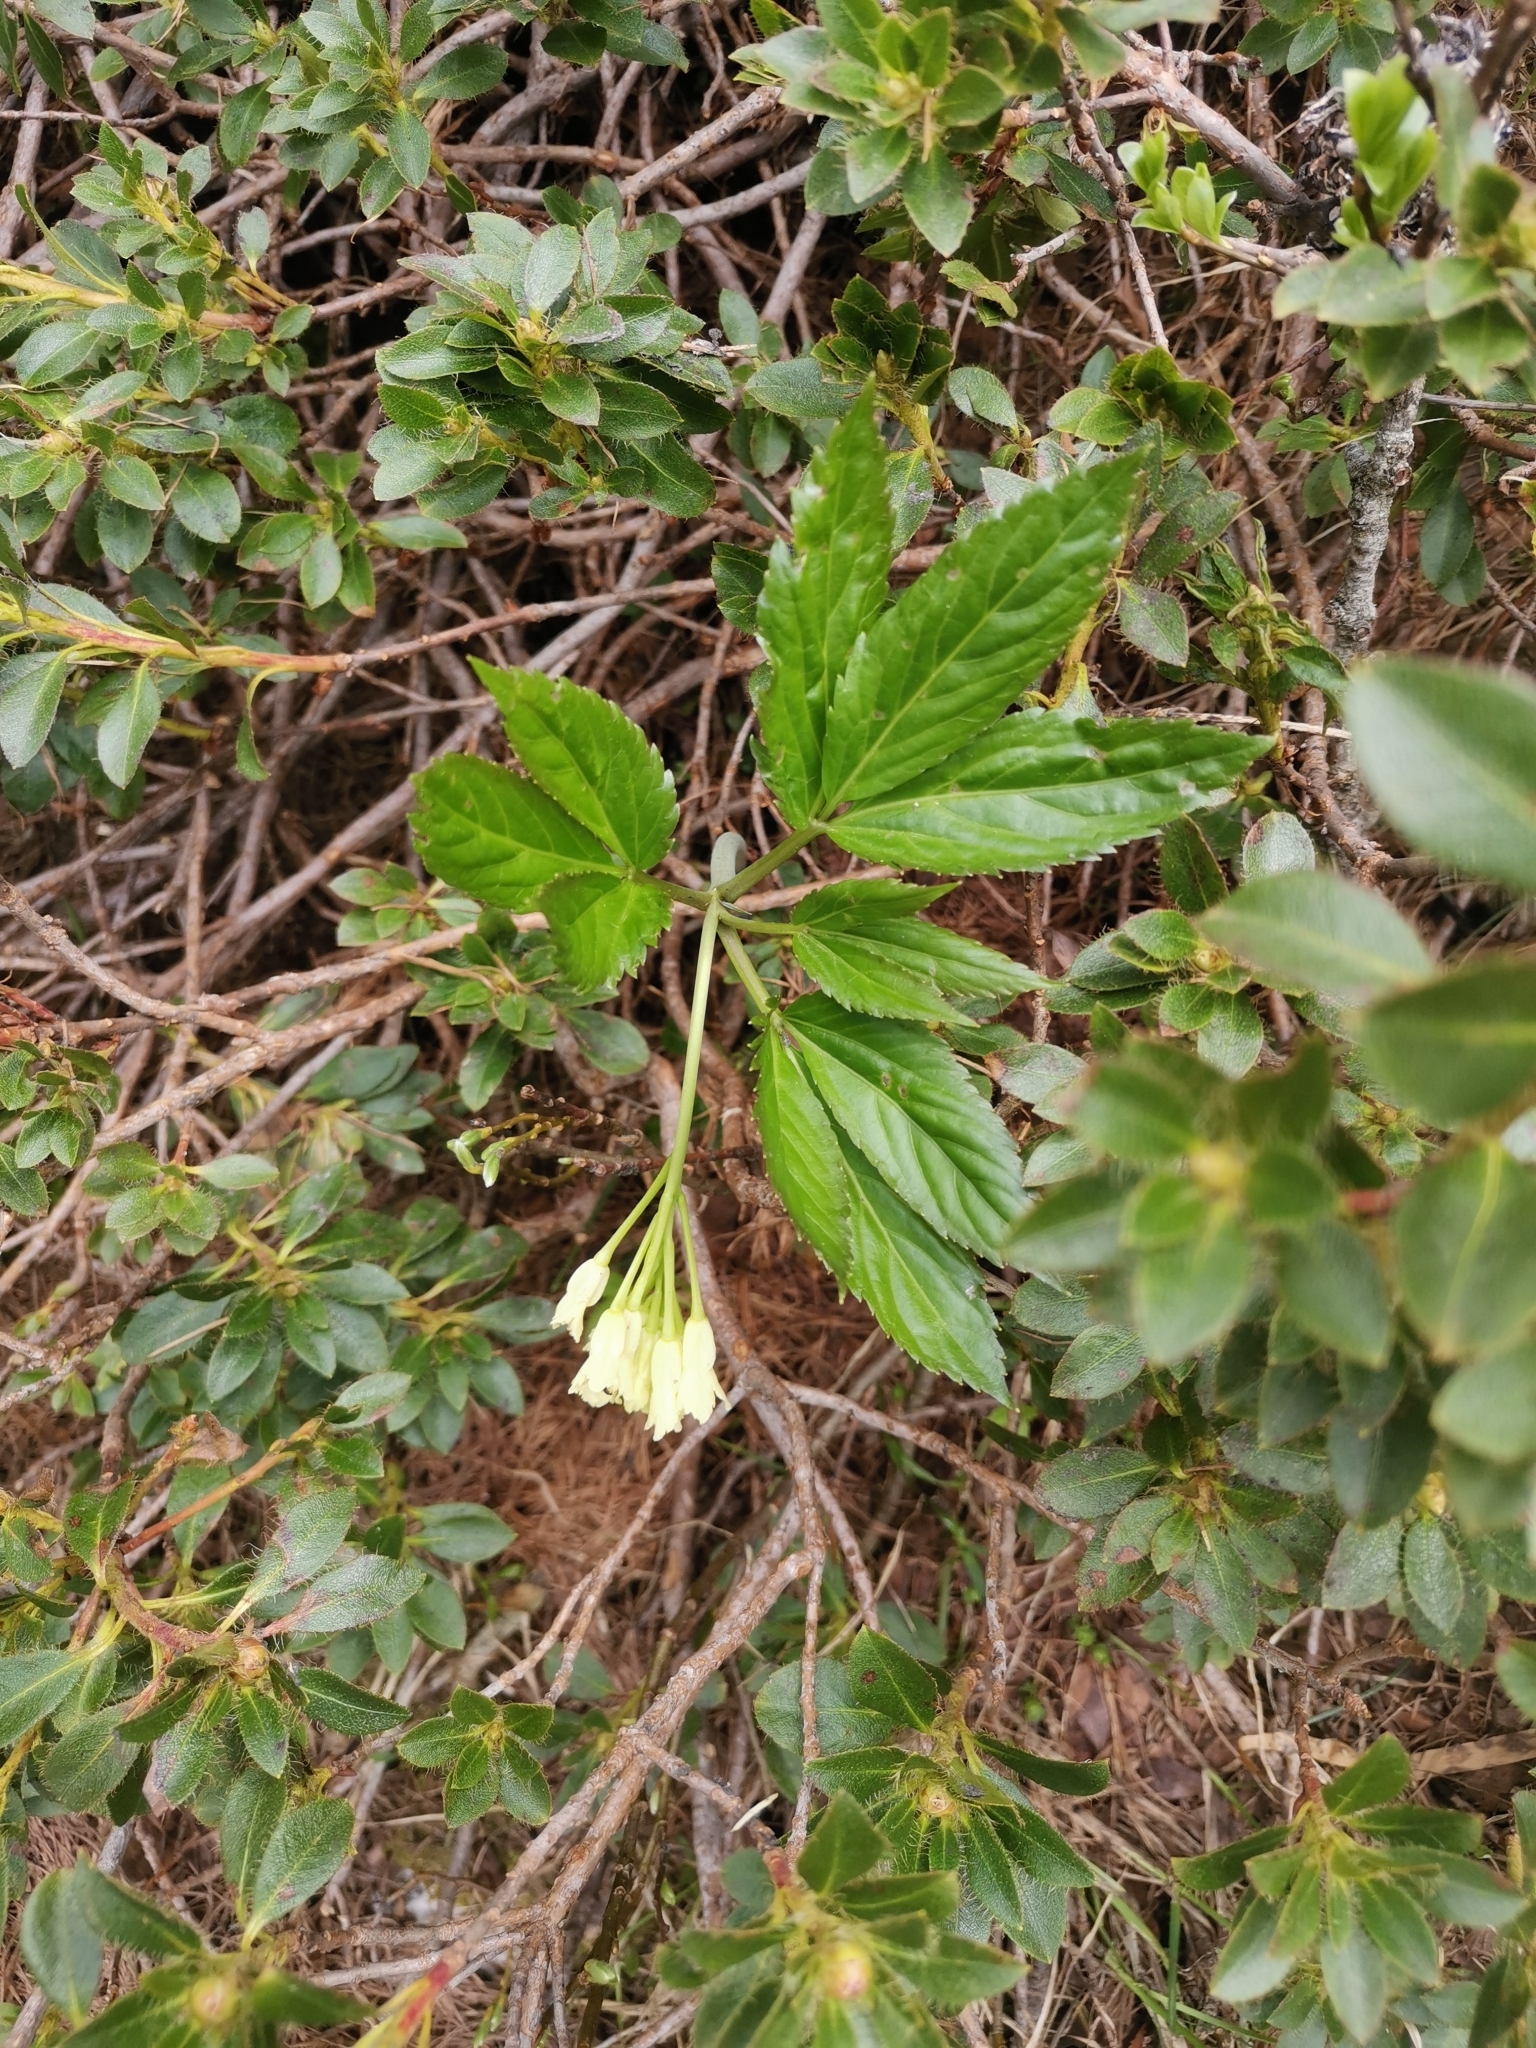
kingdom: Plantae
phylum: Tracheophyta
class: Magnoliopsida
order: Brassicales
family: Brassicaceae
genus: Cardamine
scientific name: Cardamine enneaphyllos
